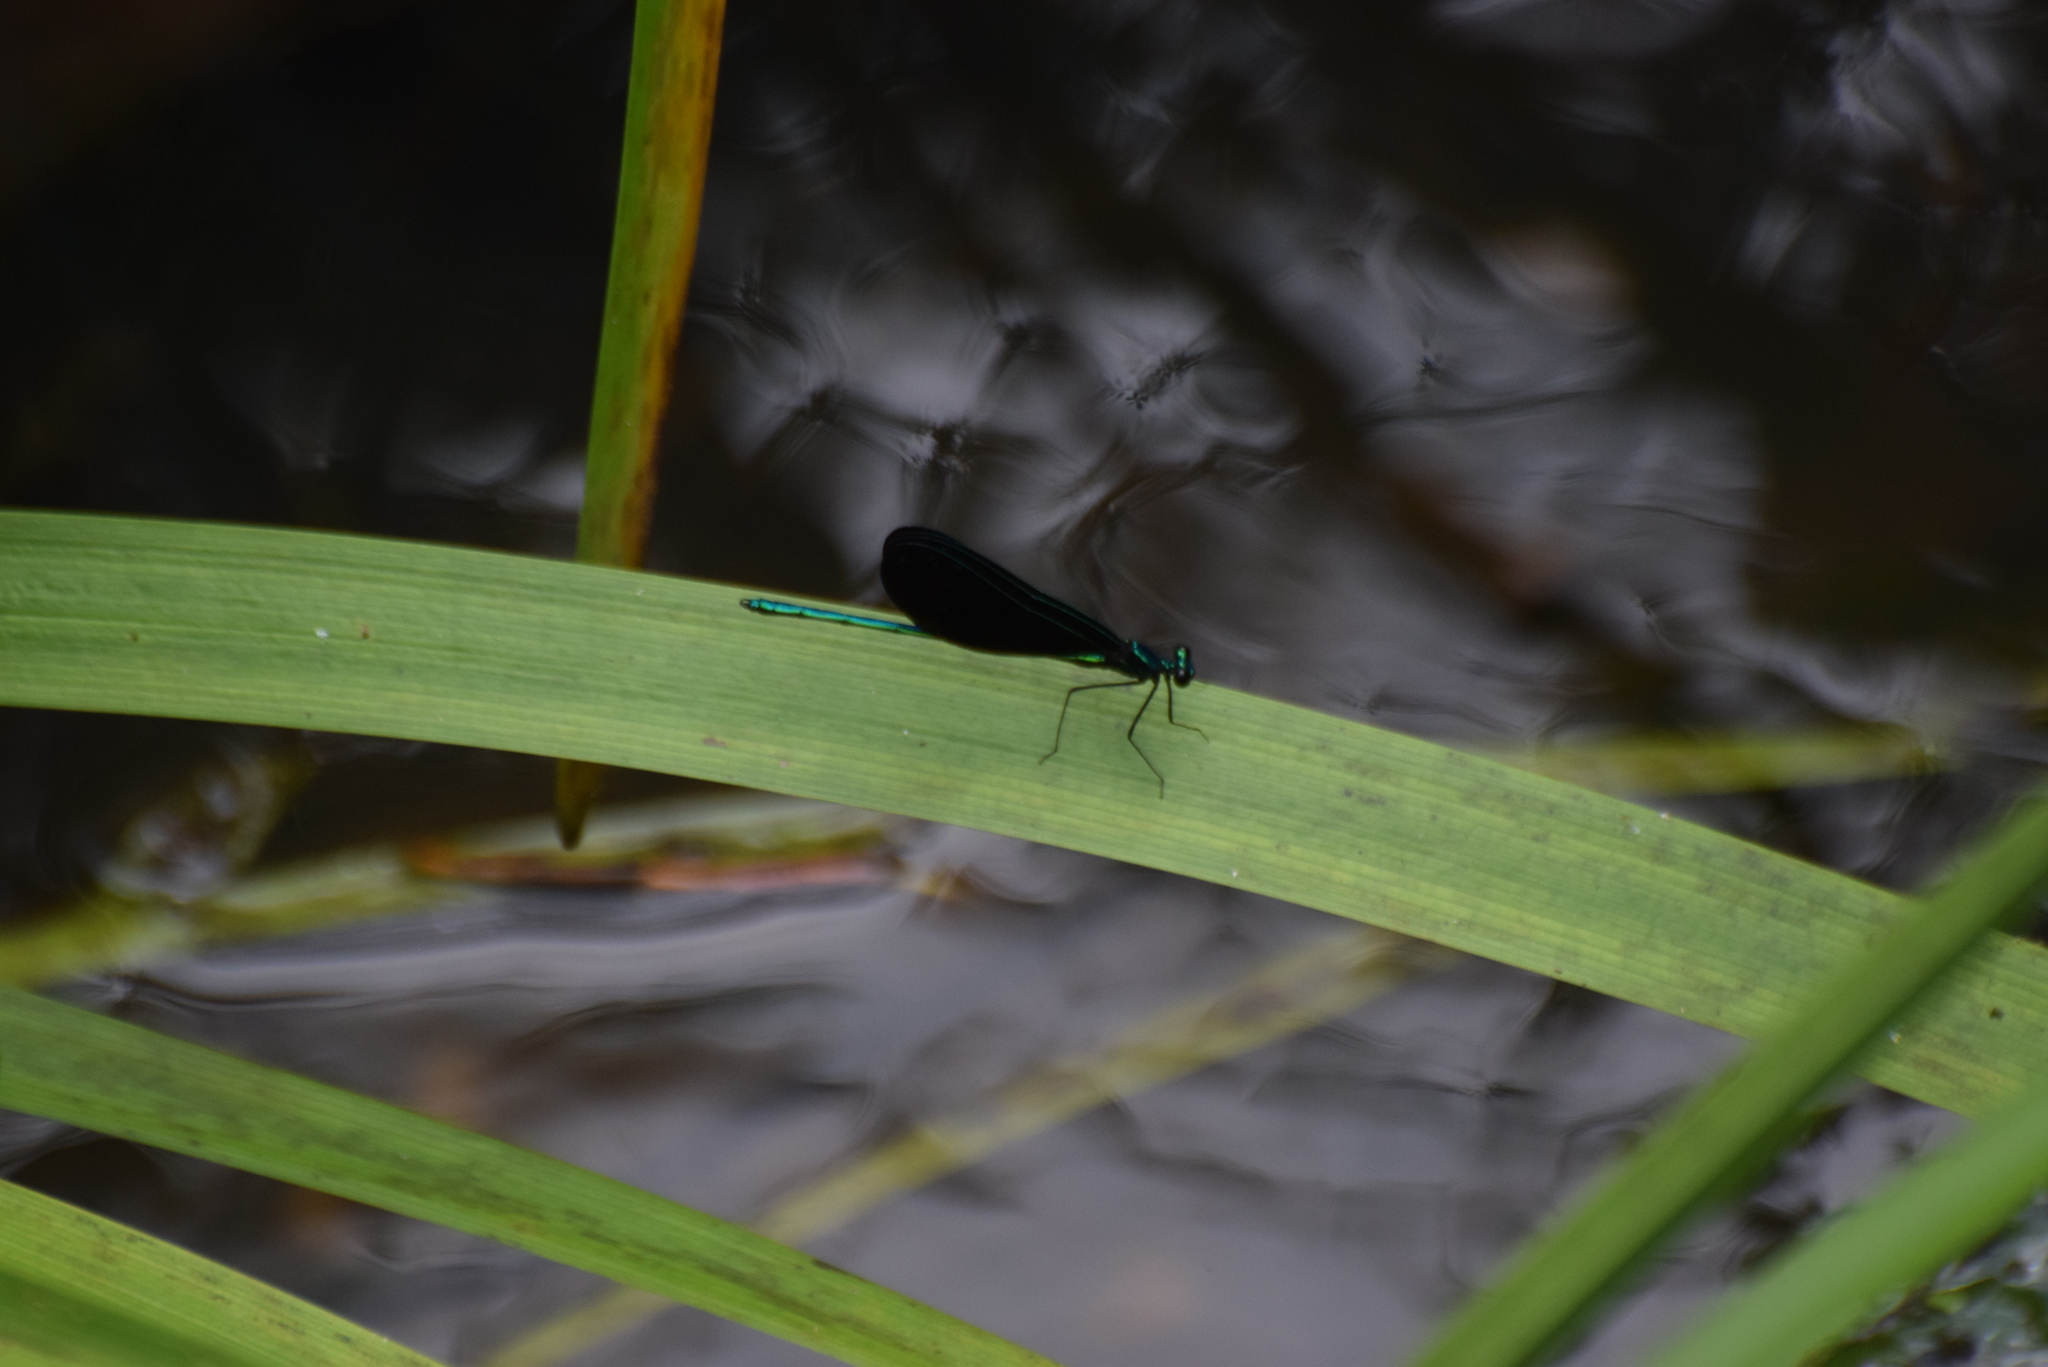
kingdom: Animalia
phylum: Arthropoda
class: Insecta
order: Odonata
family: Calopterygidae
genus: Calopteryx
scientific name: Calopteryx maculata
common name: Ebony jewelwing
